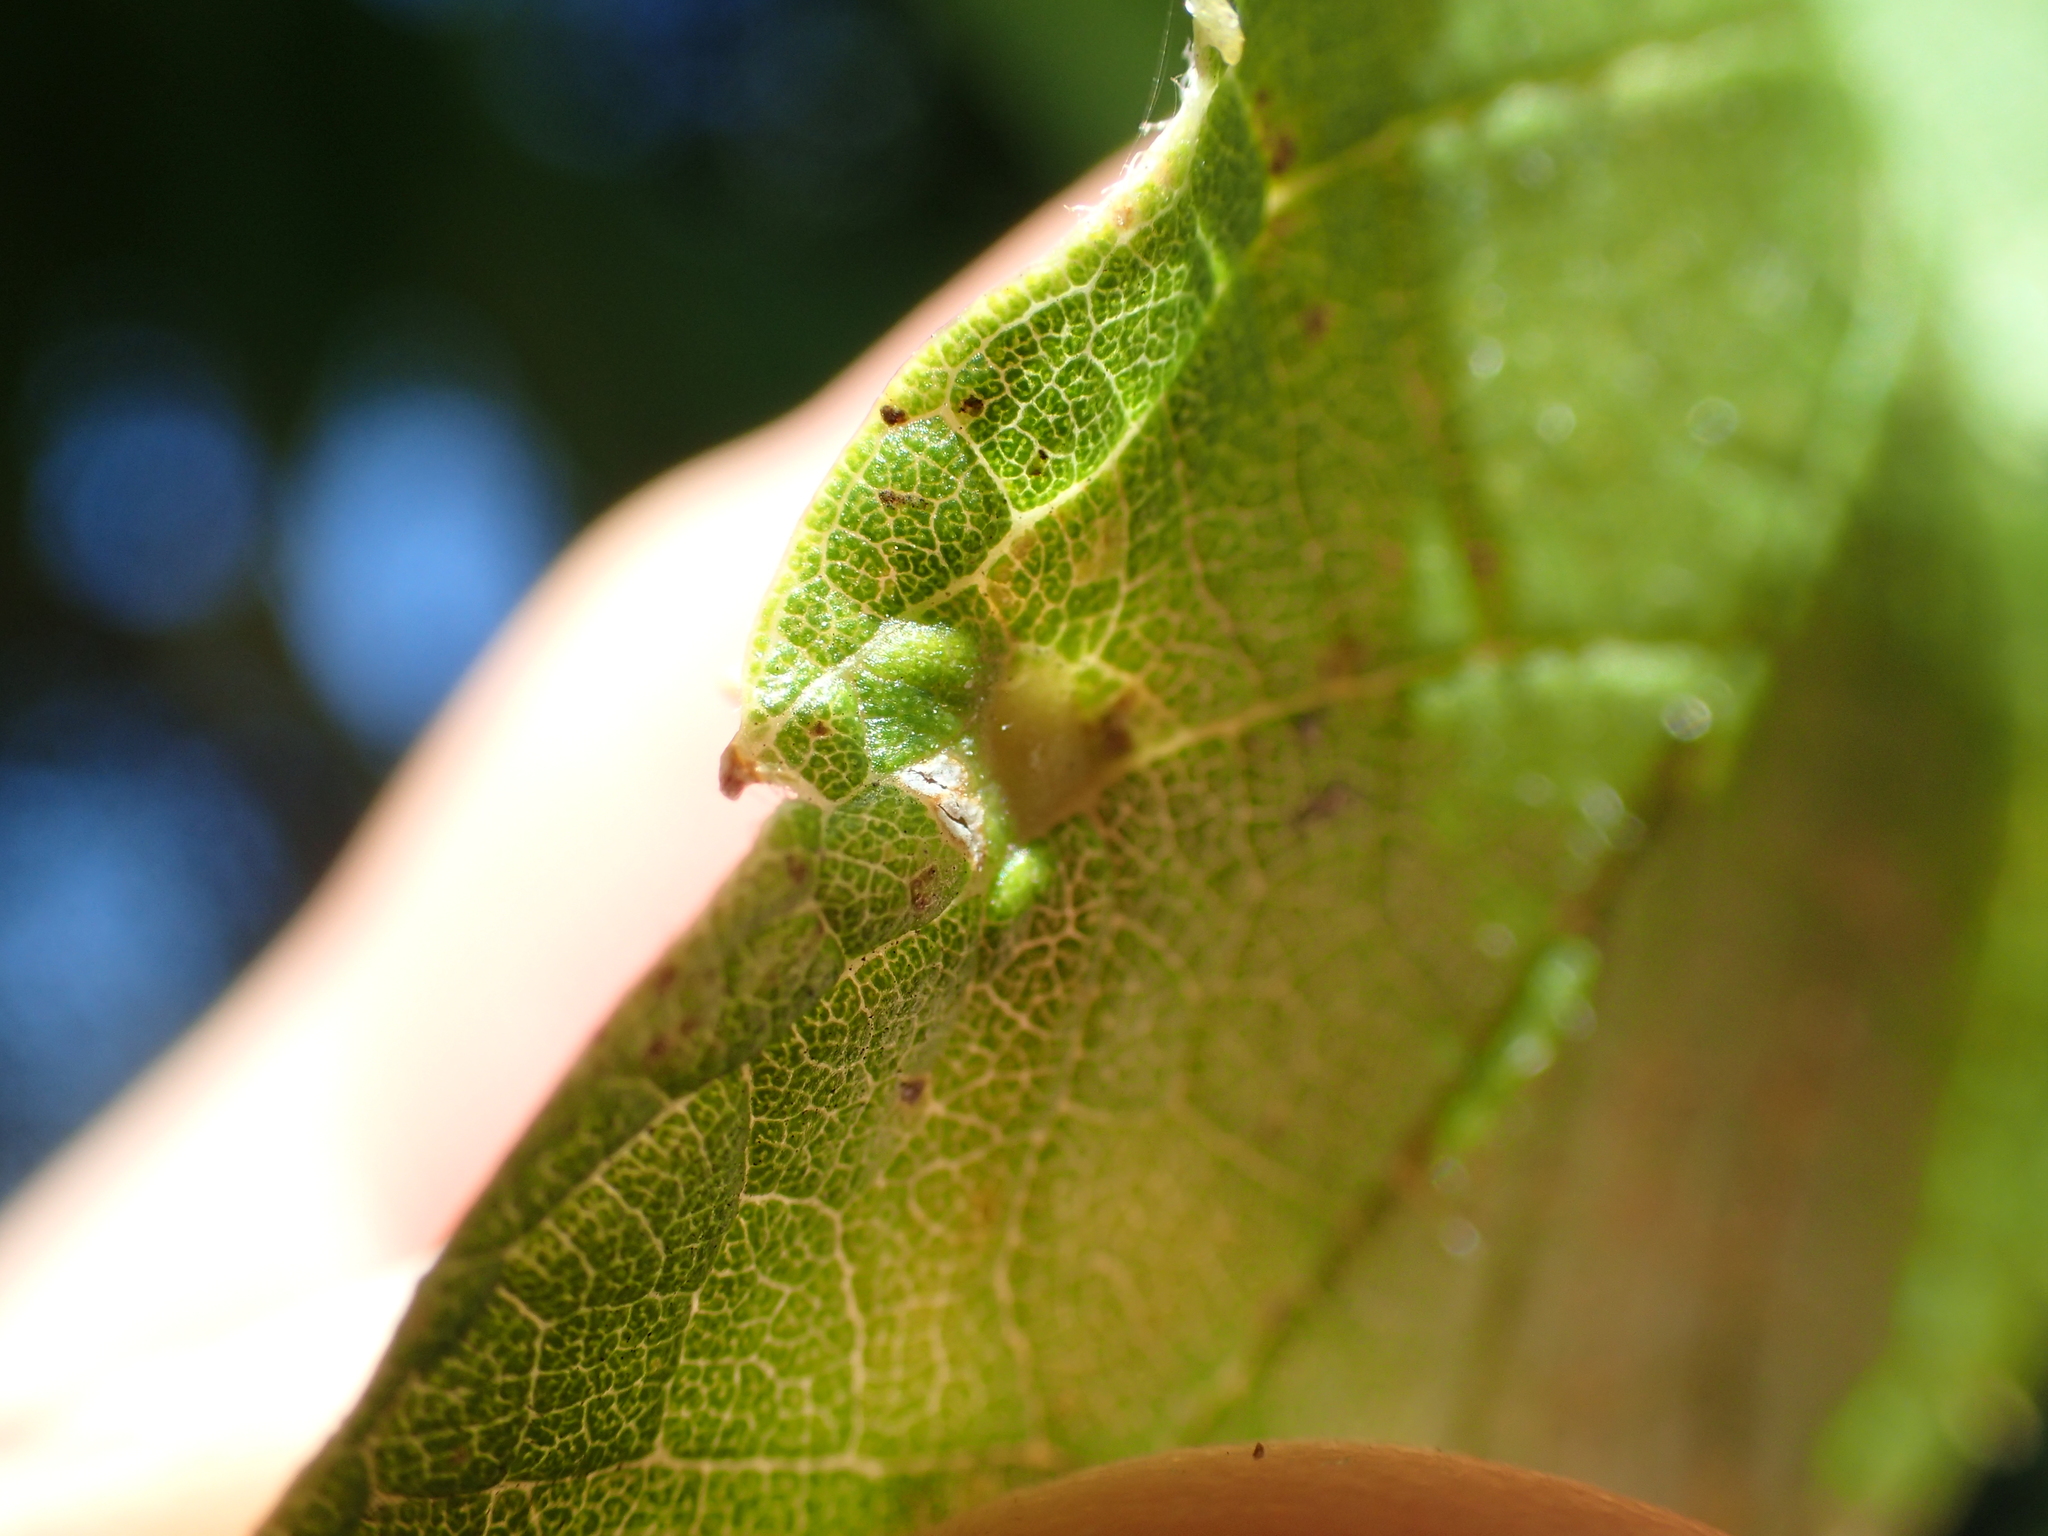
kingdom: Animalia
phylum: Arthropoda
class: Insecta
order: Diptera
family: Cecidomyiidae
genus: Celticecis
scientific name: Celticecis spiniformis
